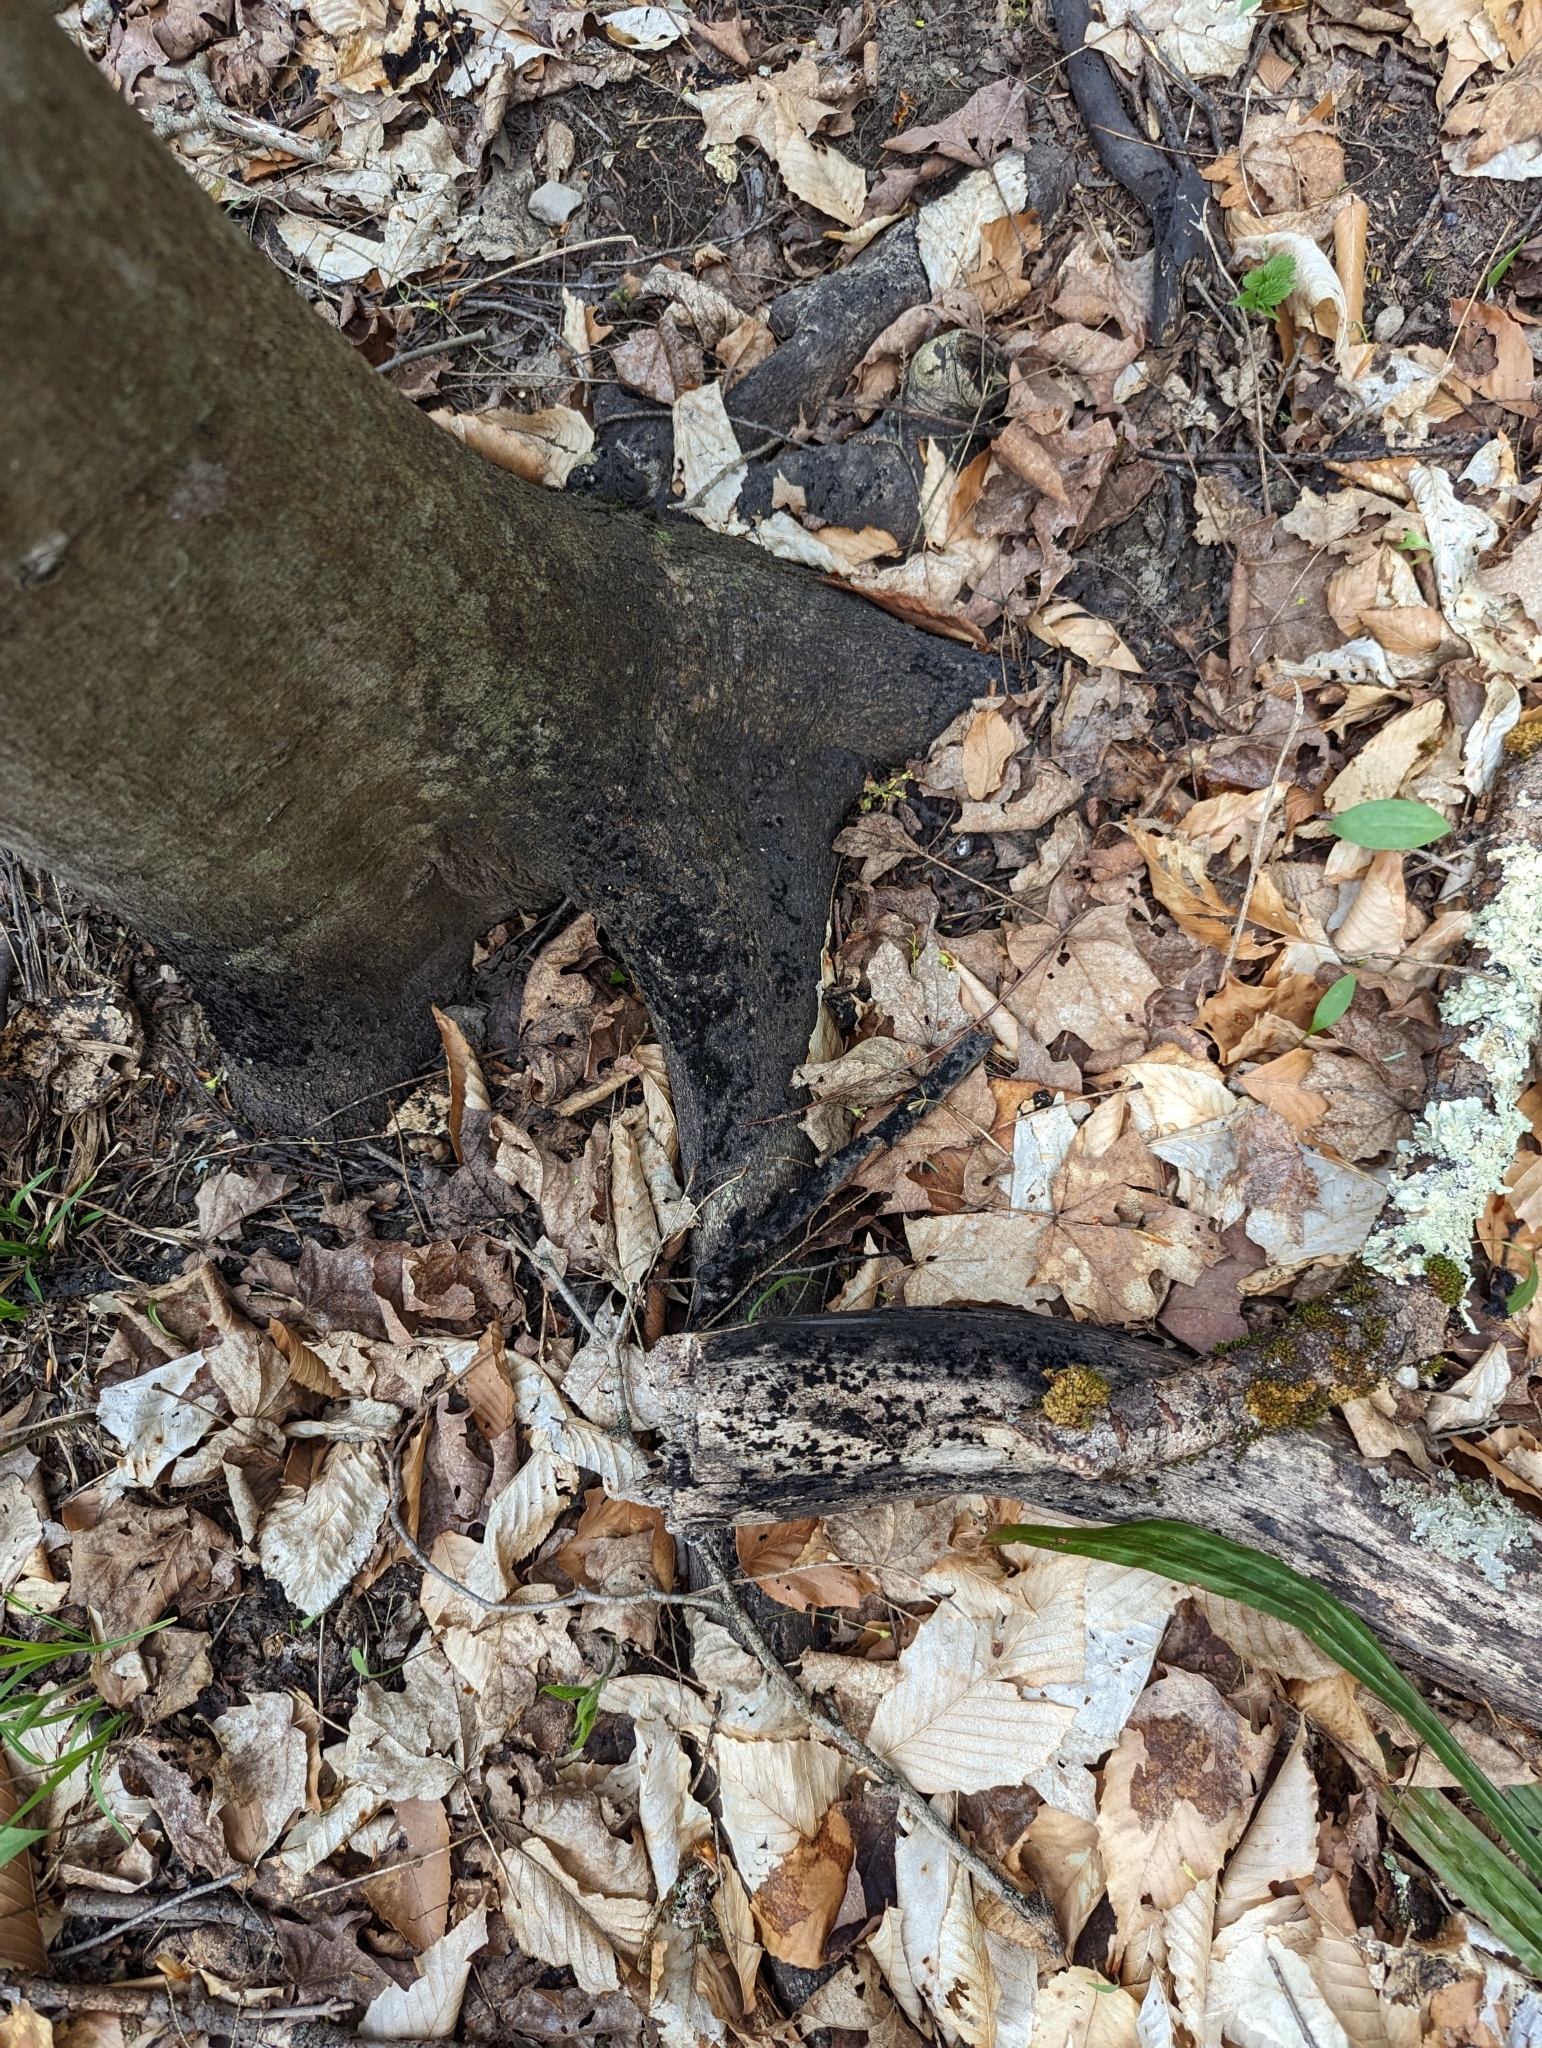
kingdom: Fungi
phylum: Ascomycota
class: Dothideomycetes
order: Capnodiales
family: Capnodiaceae
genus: Scorias
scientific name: Scorias spongiosa
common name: Black sooty mold
